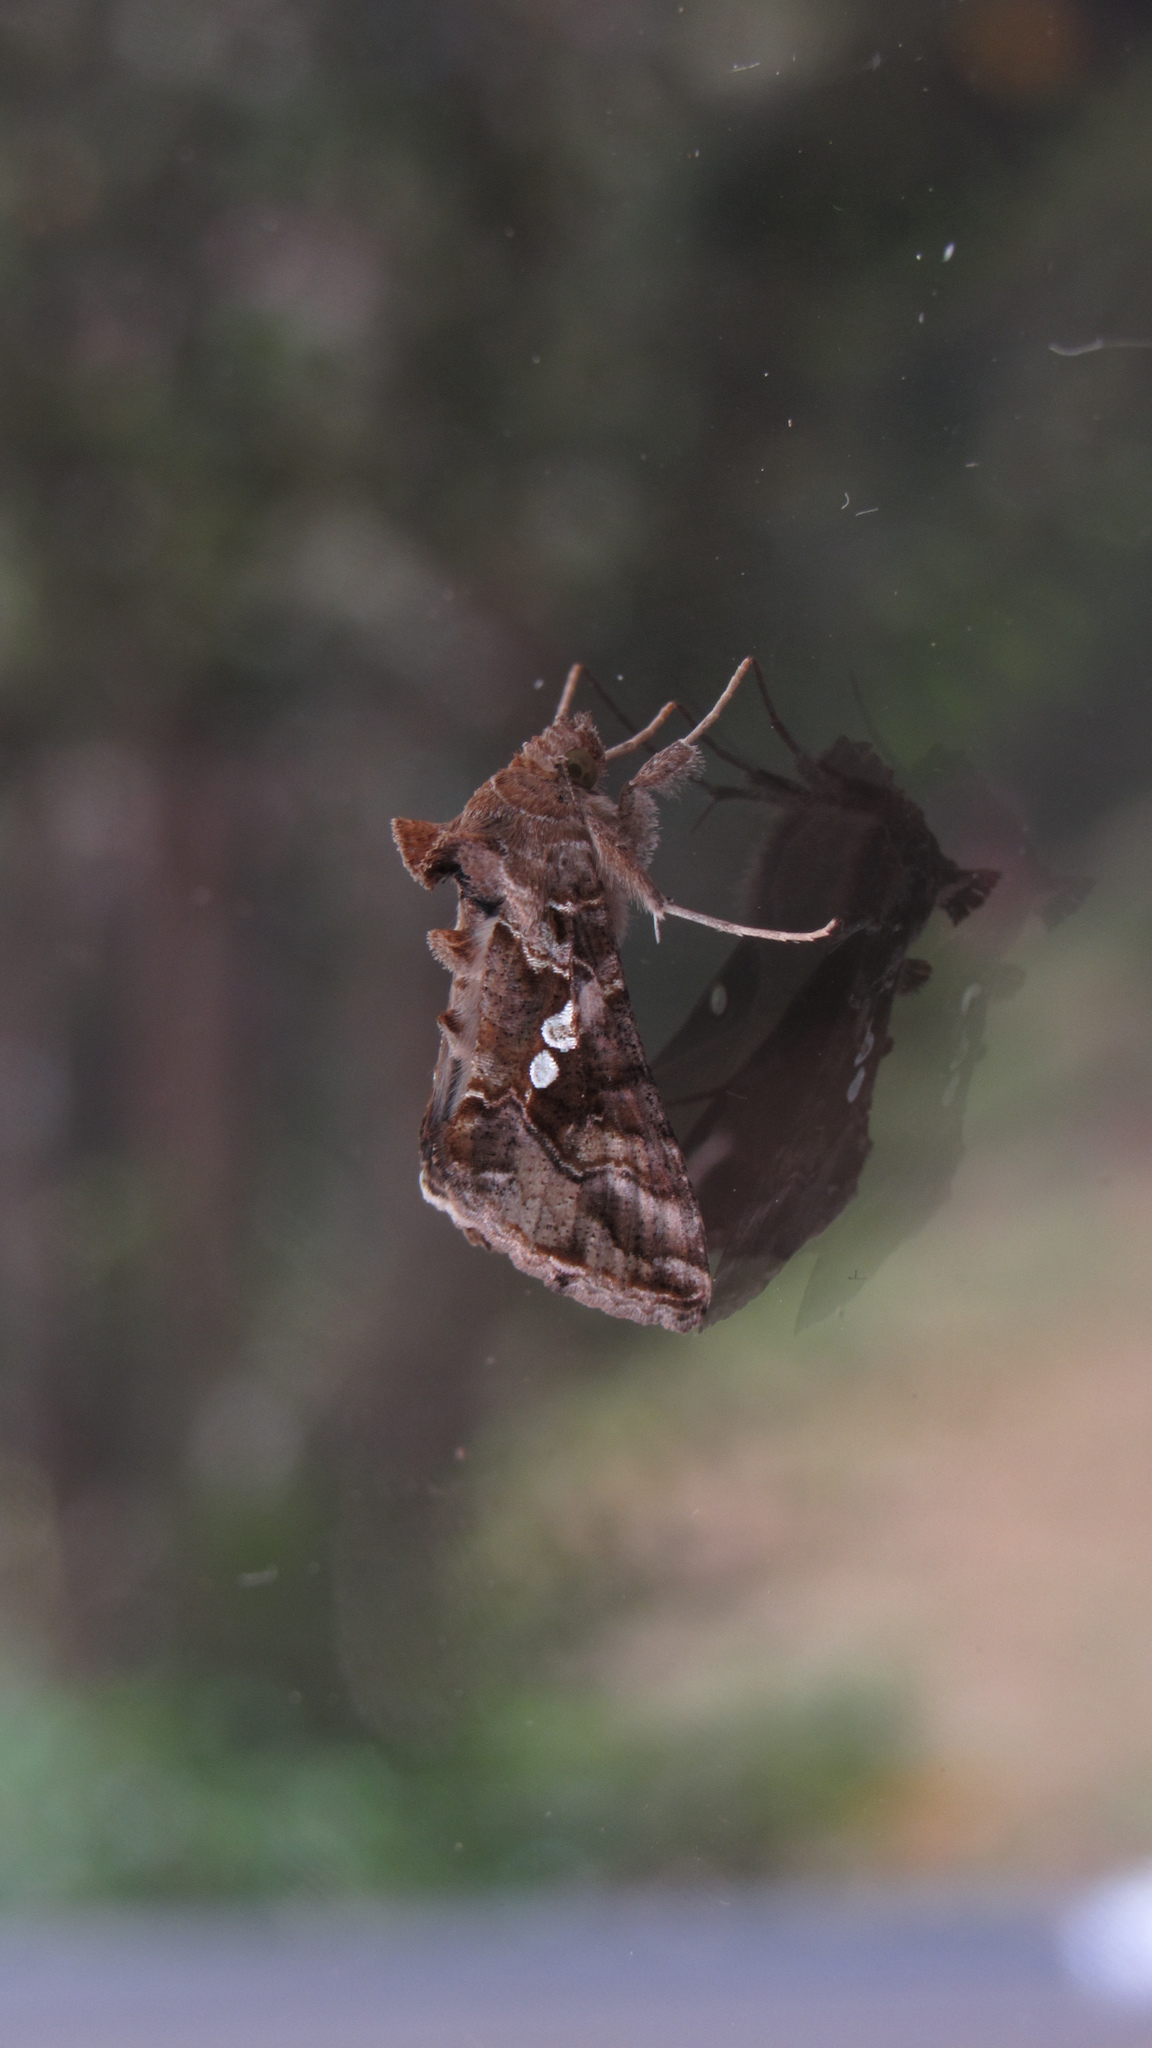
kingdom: Animalia
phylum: Arthropoda
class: Insecta
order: Lepidoptera
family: Noctuidae
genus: Chrysodeixis
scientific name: Chrysodeixis includens
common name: Cutworm moth
